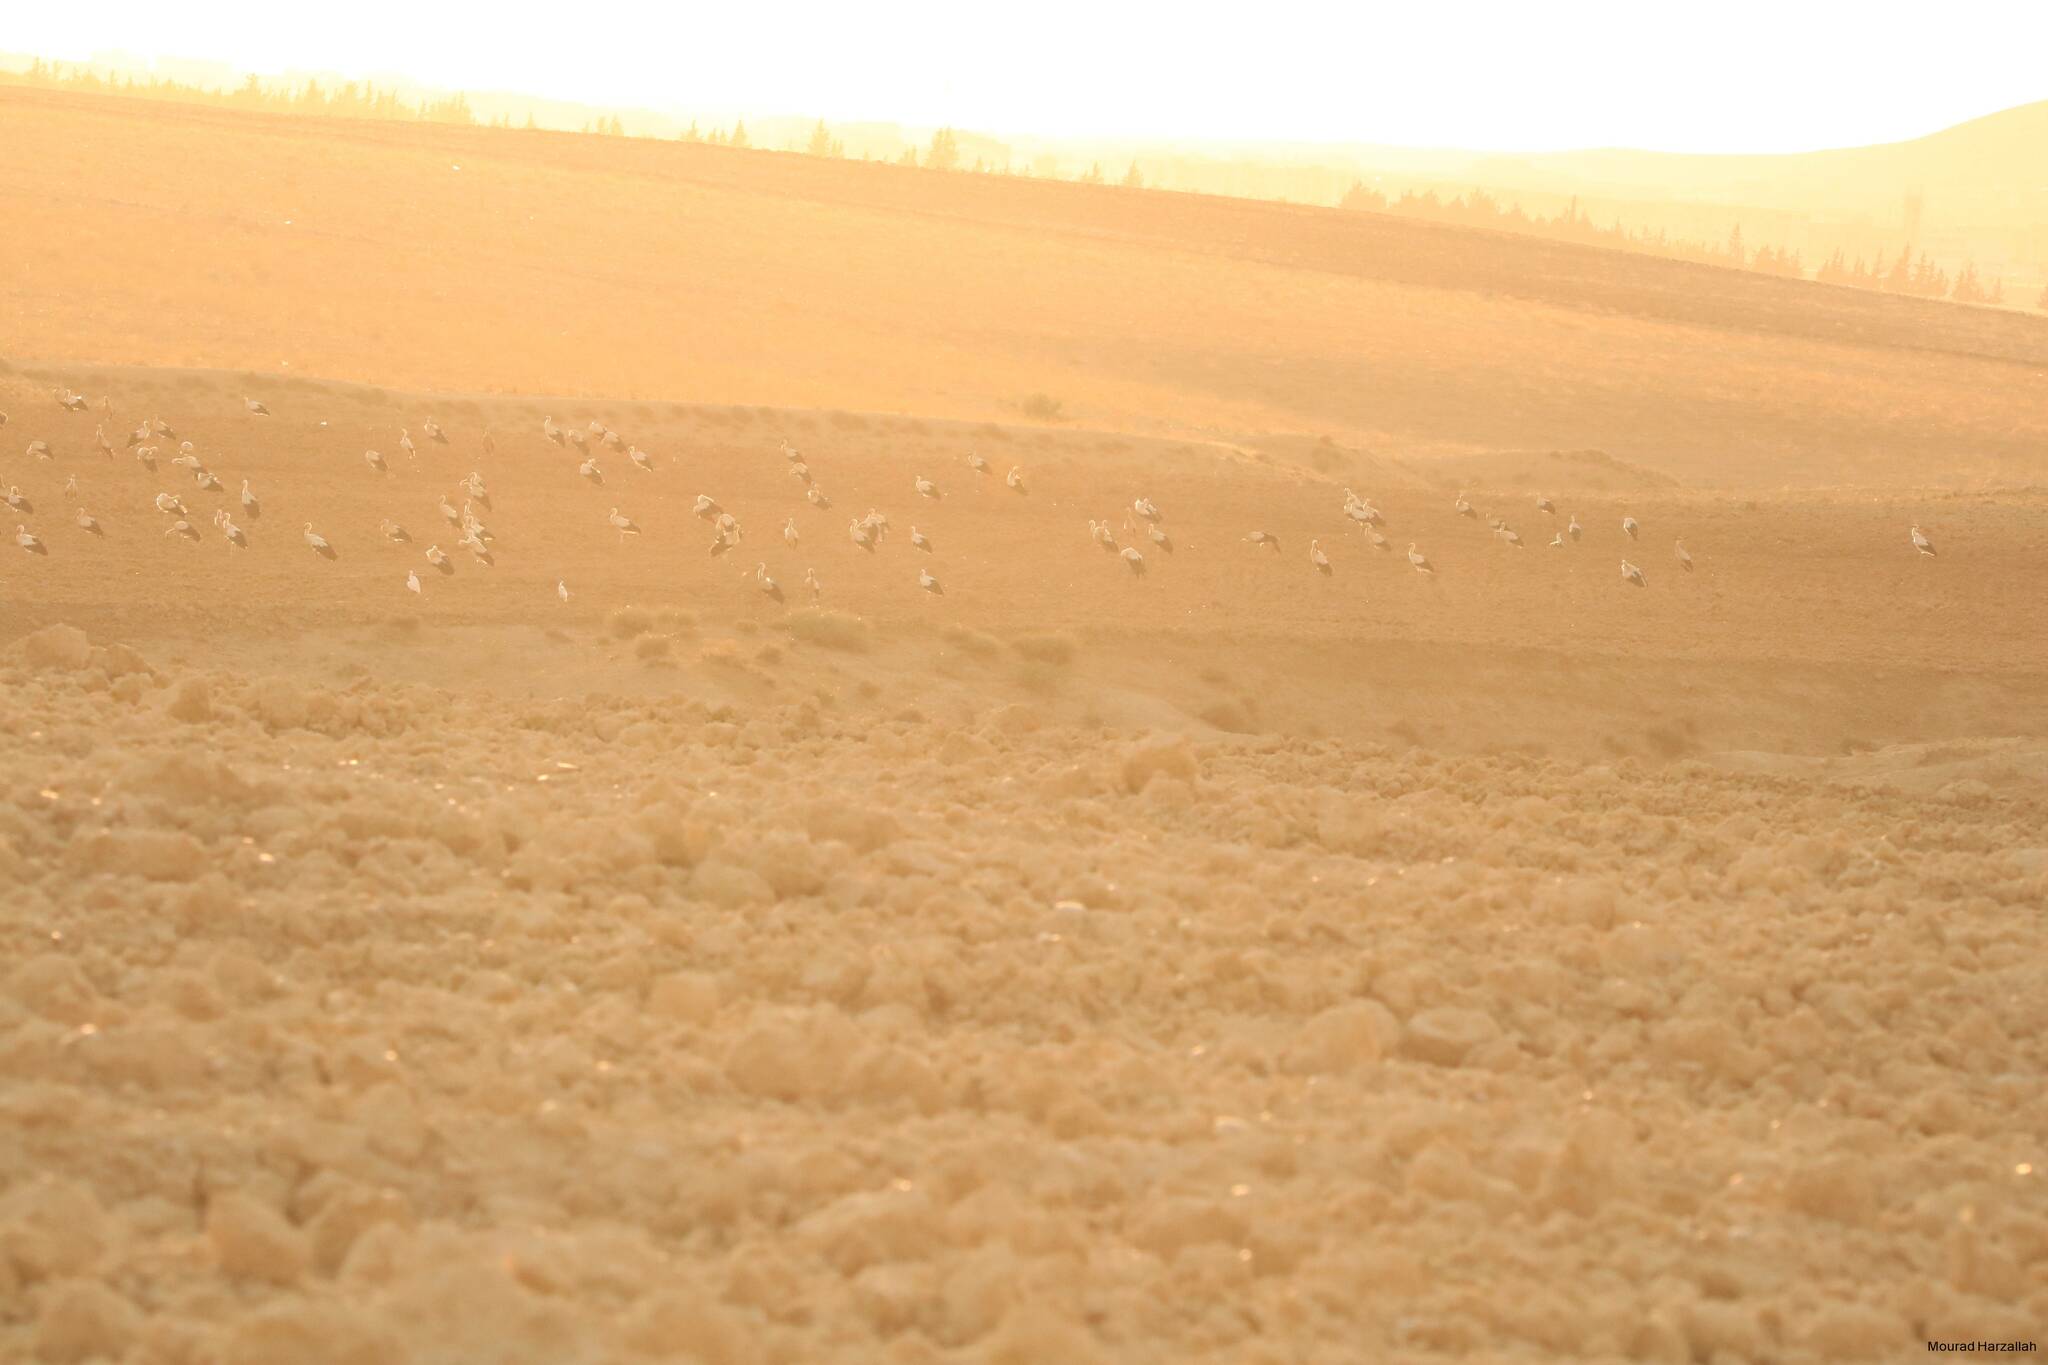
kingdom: Animalia
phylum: Chordata
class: Aves
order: Ciconiiformes
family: Ciconiidae
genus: Ciconia
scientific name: Ciconia ciconia
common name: White stork
